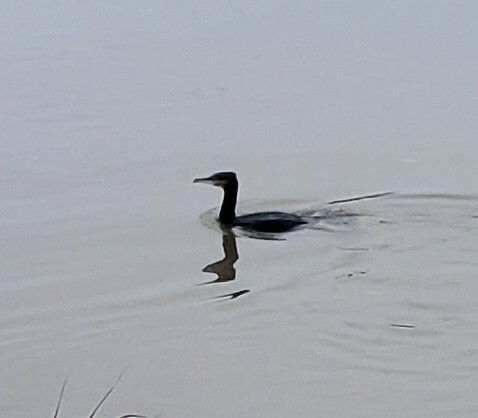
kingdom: Animalia
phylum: Chordata
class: Aves
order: Suliformes
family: Phalacrocoracidae
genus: Phalacrocorax
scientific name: Phalacrocorax carbo
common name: Great cormorant
